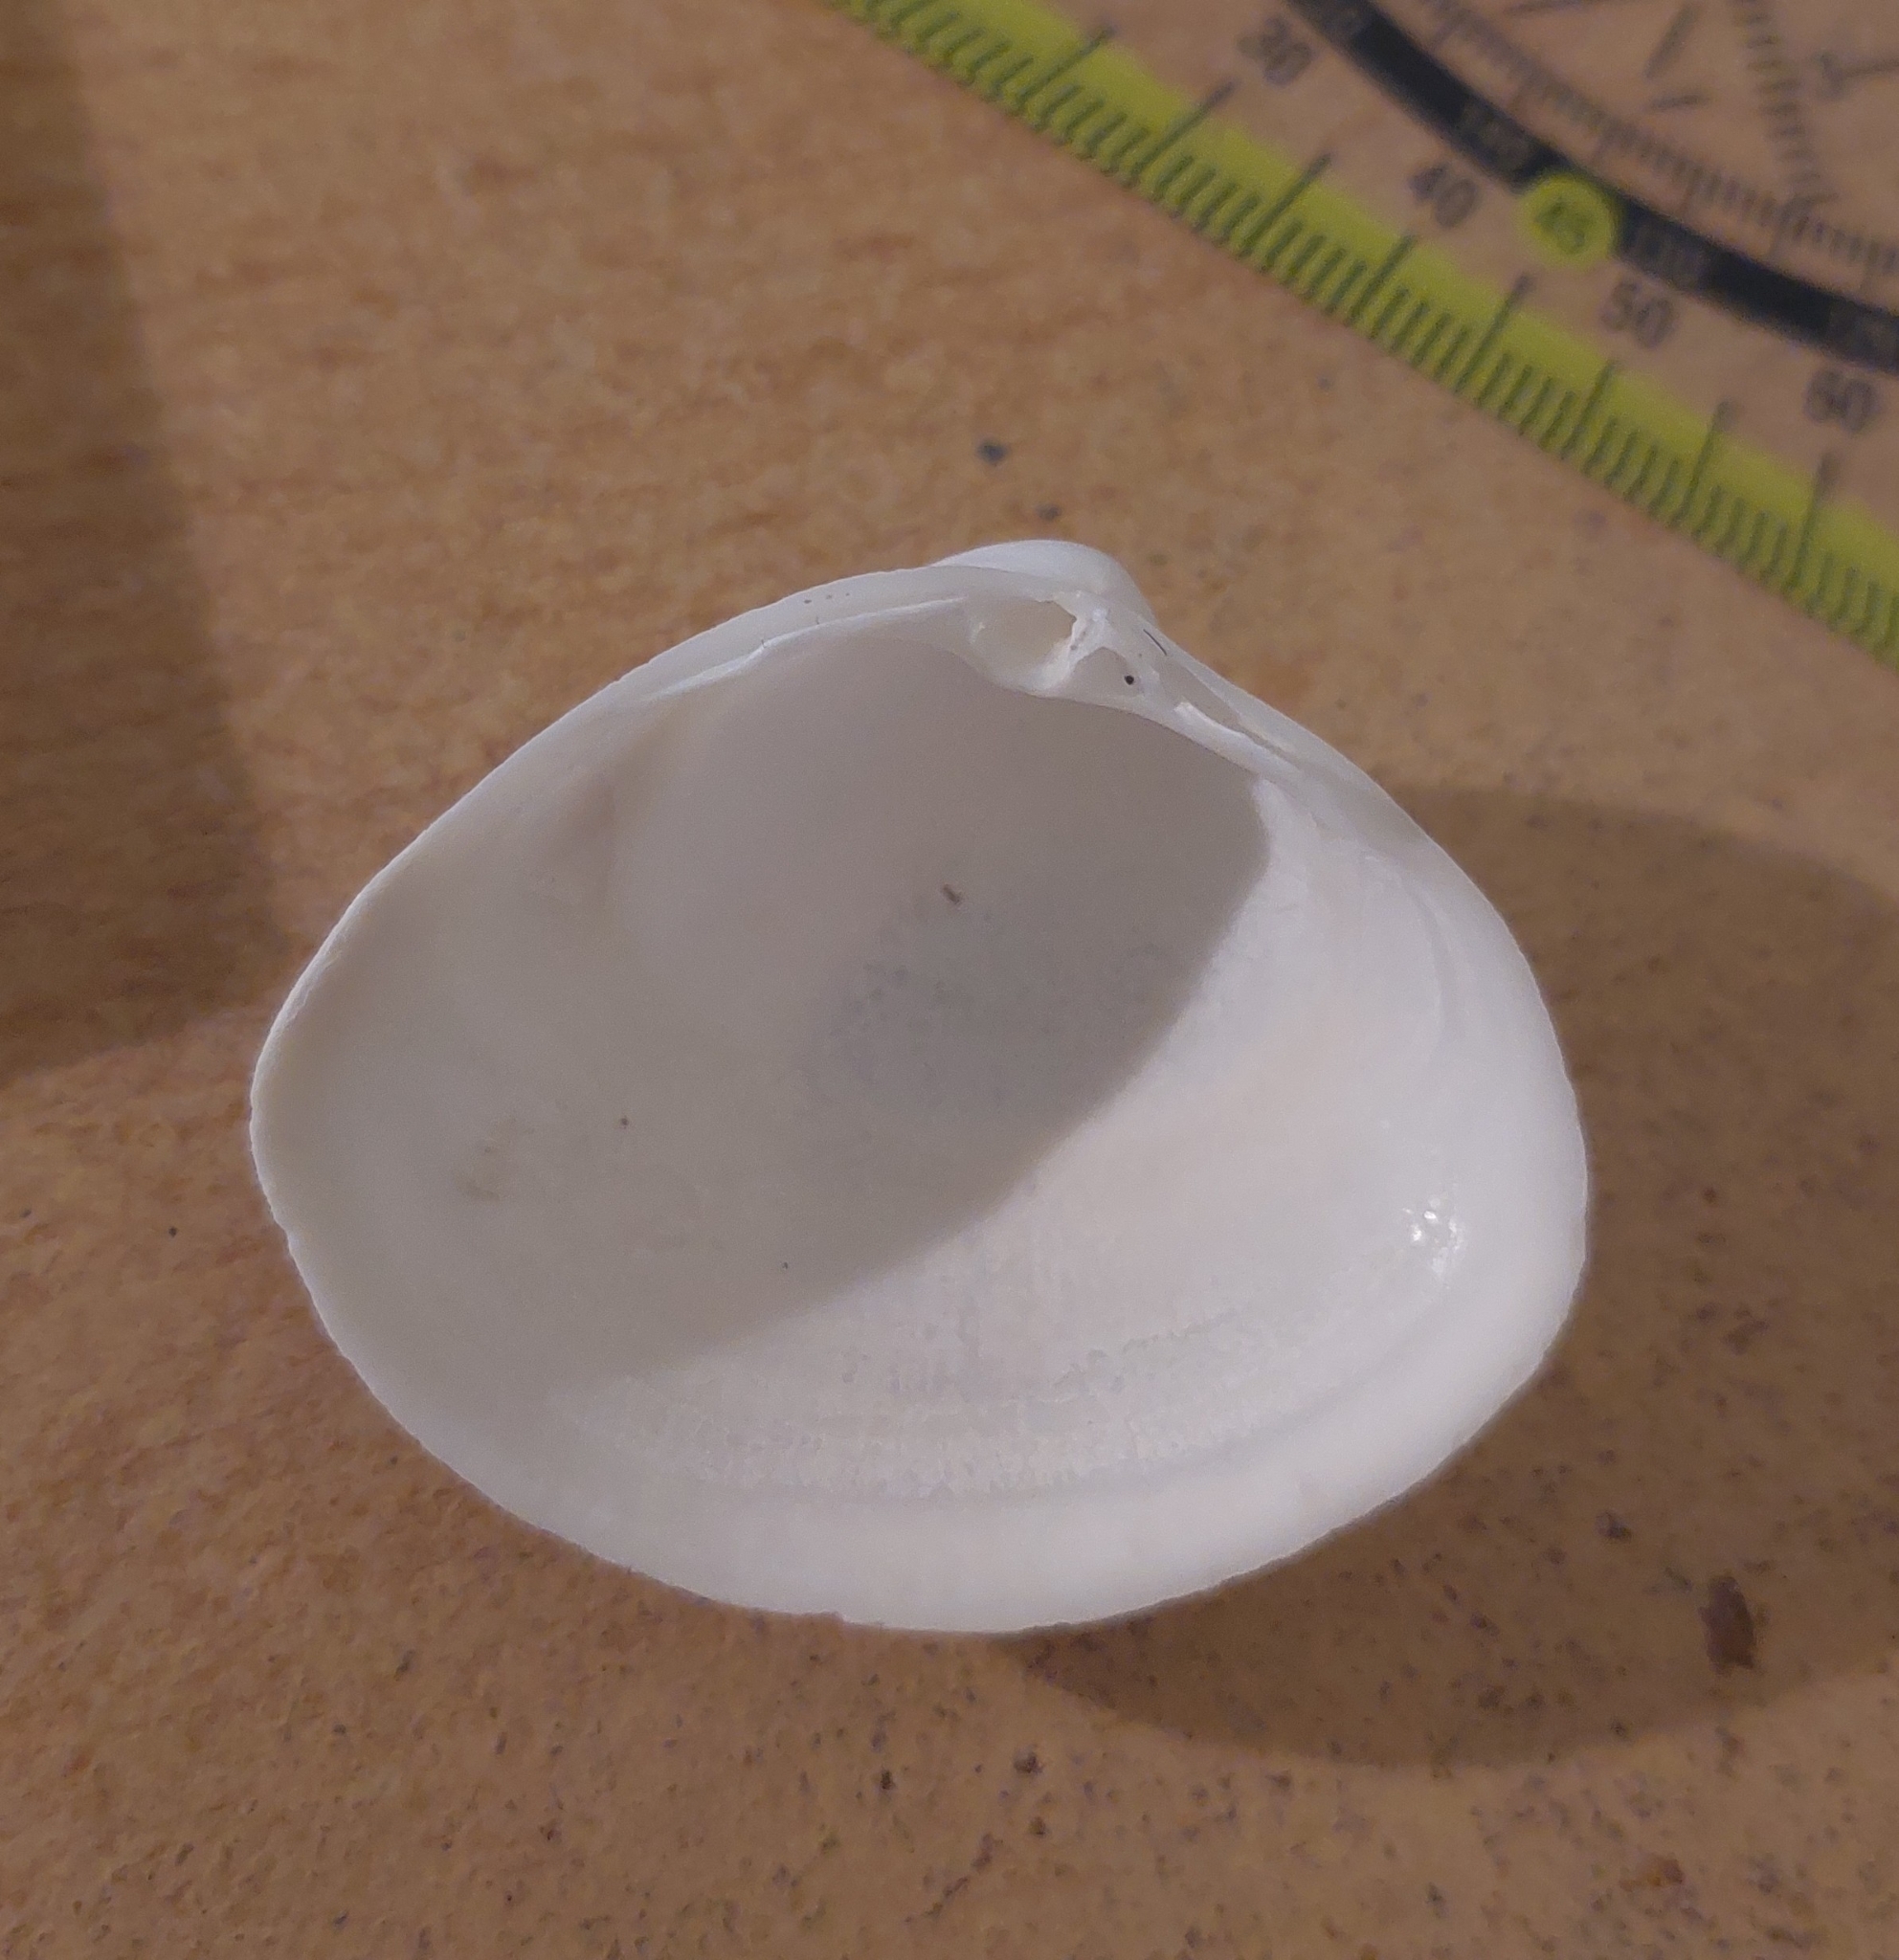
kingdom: Animalia
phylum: Mollusca
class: Bivalvia
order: Venerida
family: Mactridae
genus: Mactra
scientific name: Mactra stultorum
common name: Rayed trough shell
